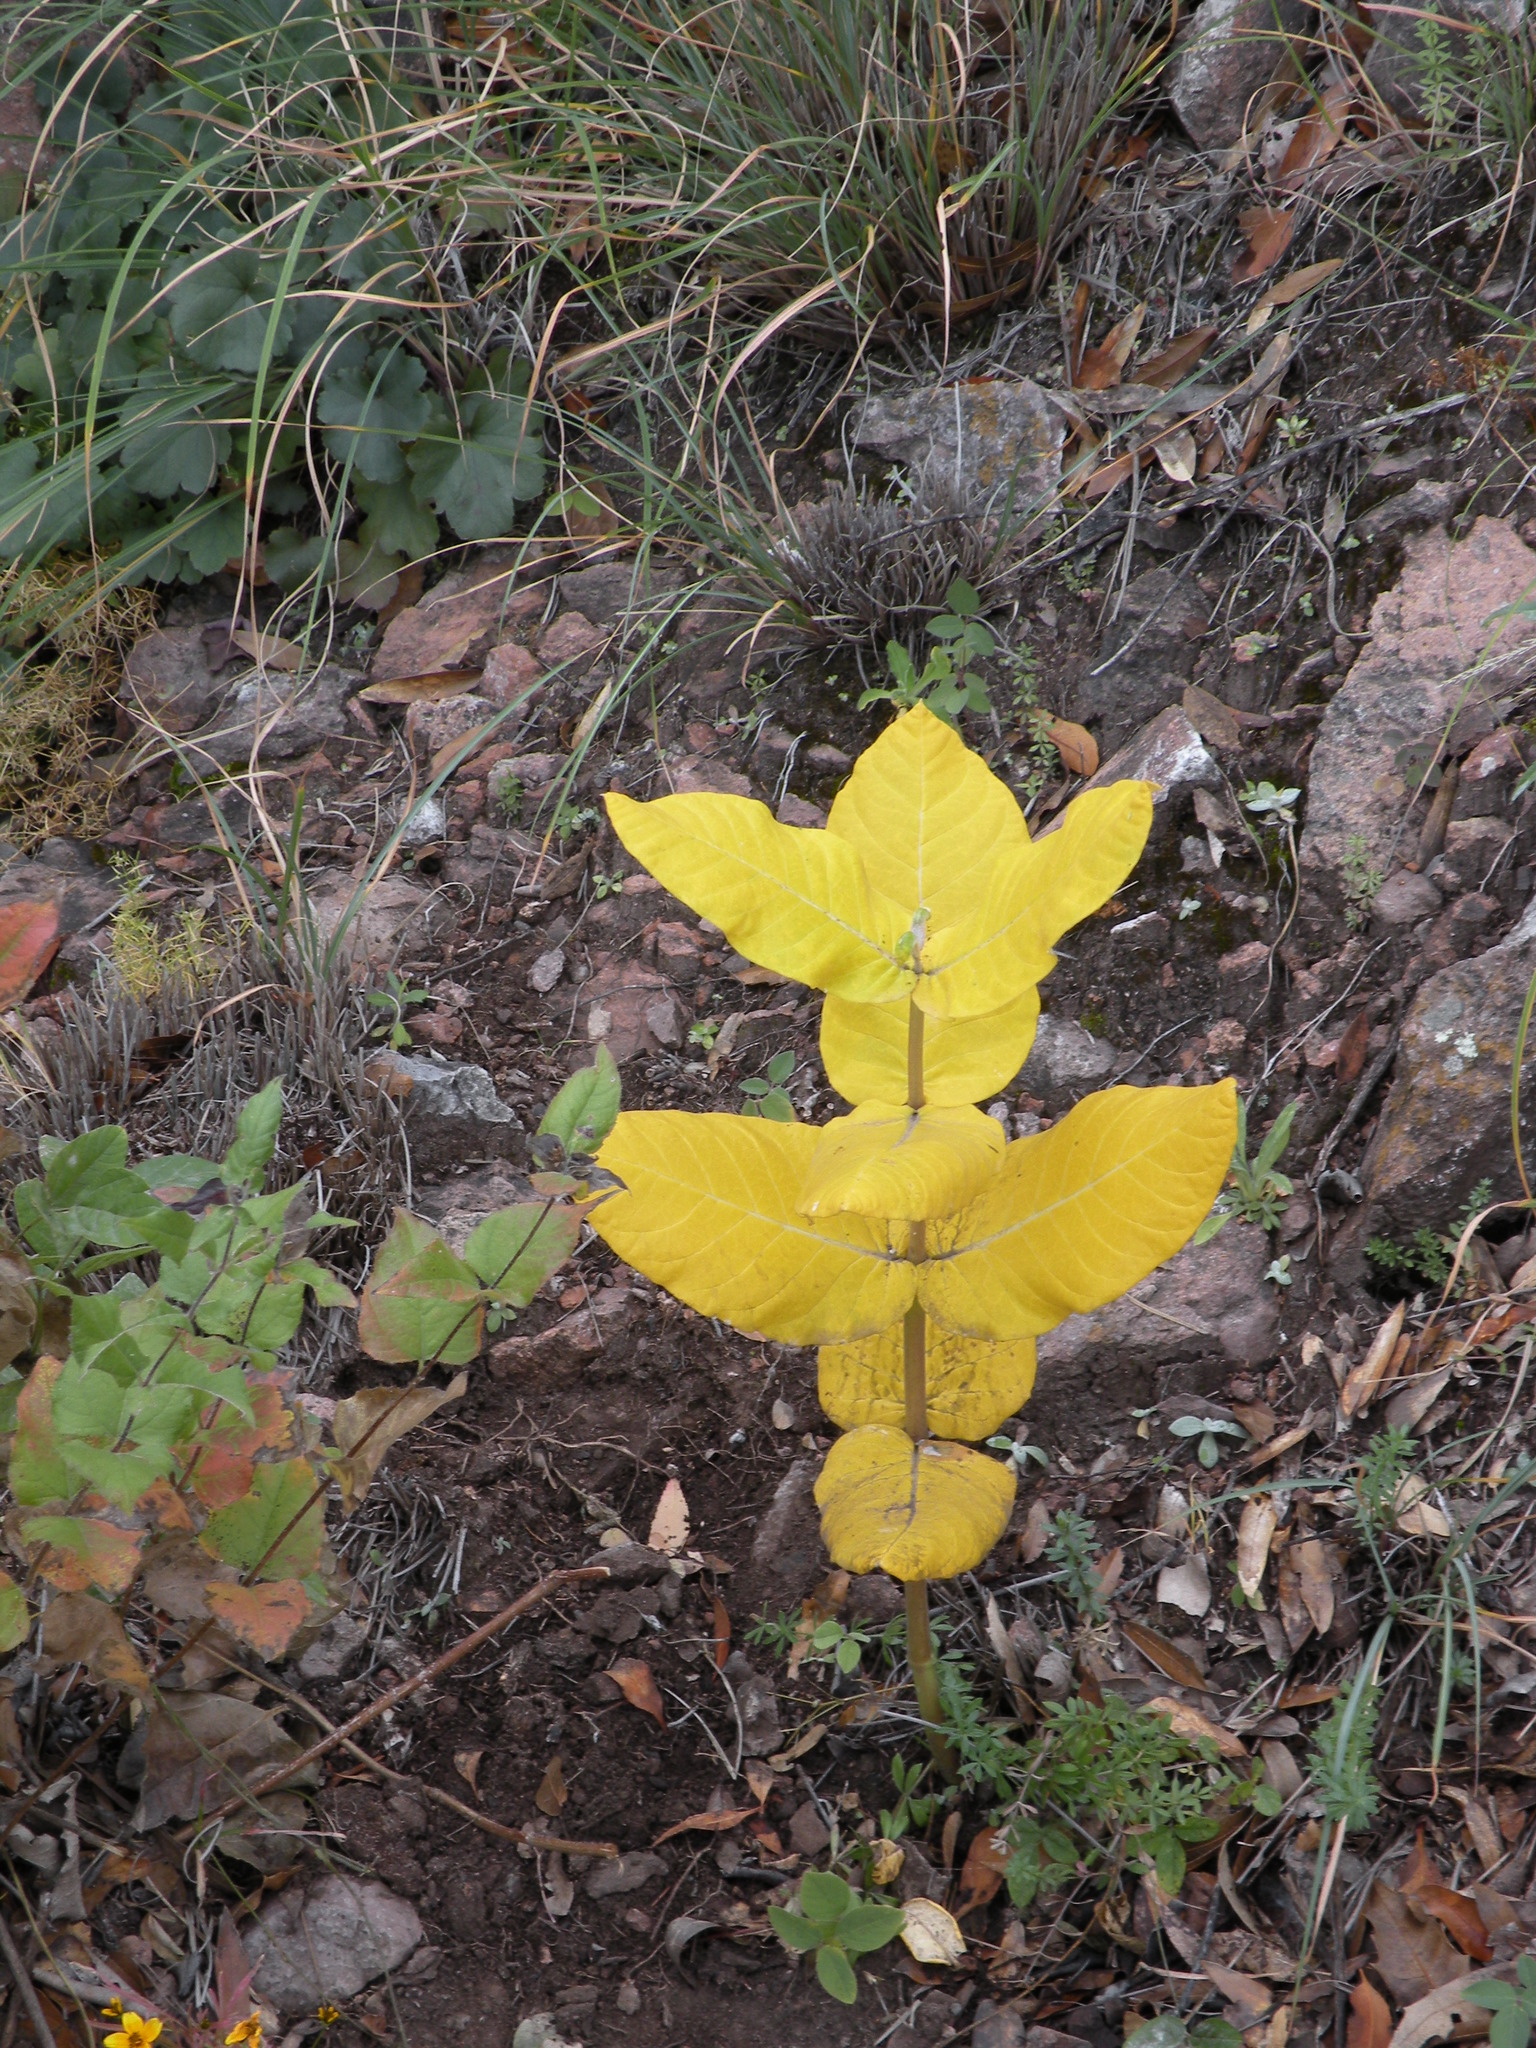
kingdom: Plantae
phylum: Tracheophyta
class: Magnoliopsida
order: Gentianales
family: Apocynaceae
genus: Asclepias
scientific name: Asclepias otarioides
